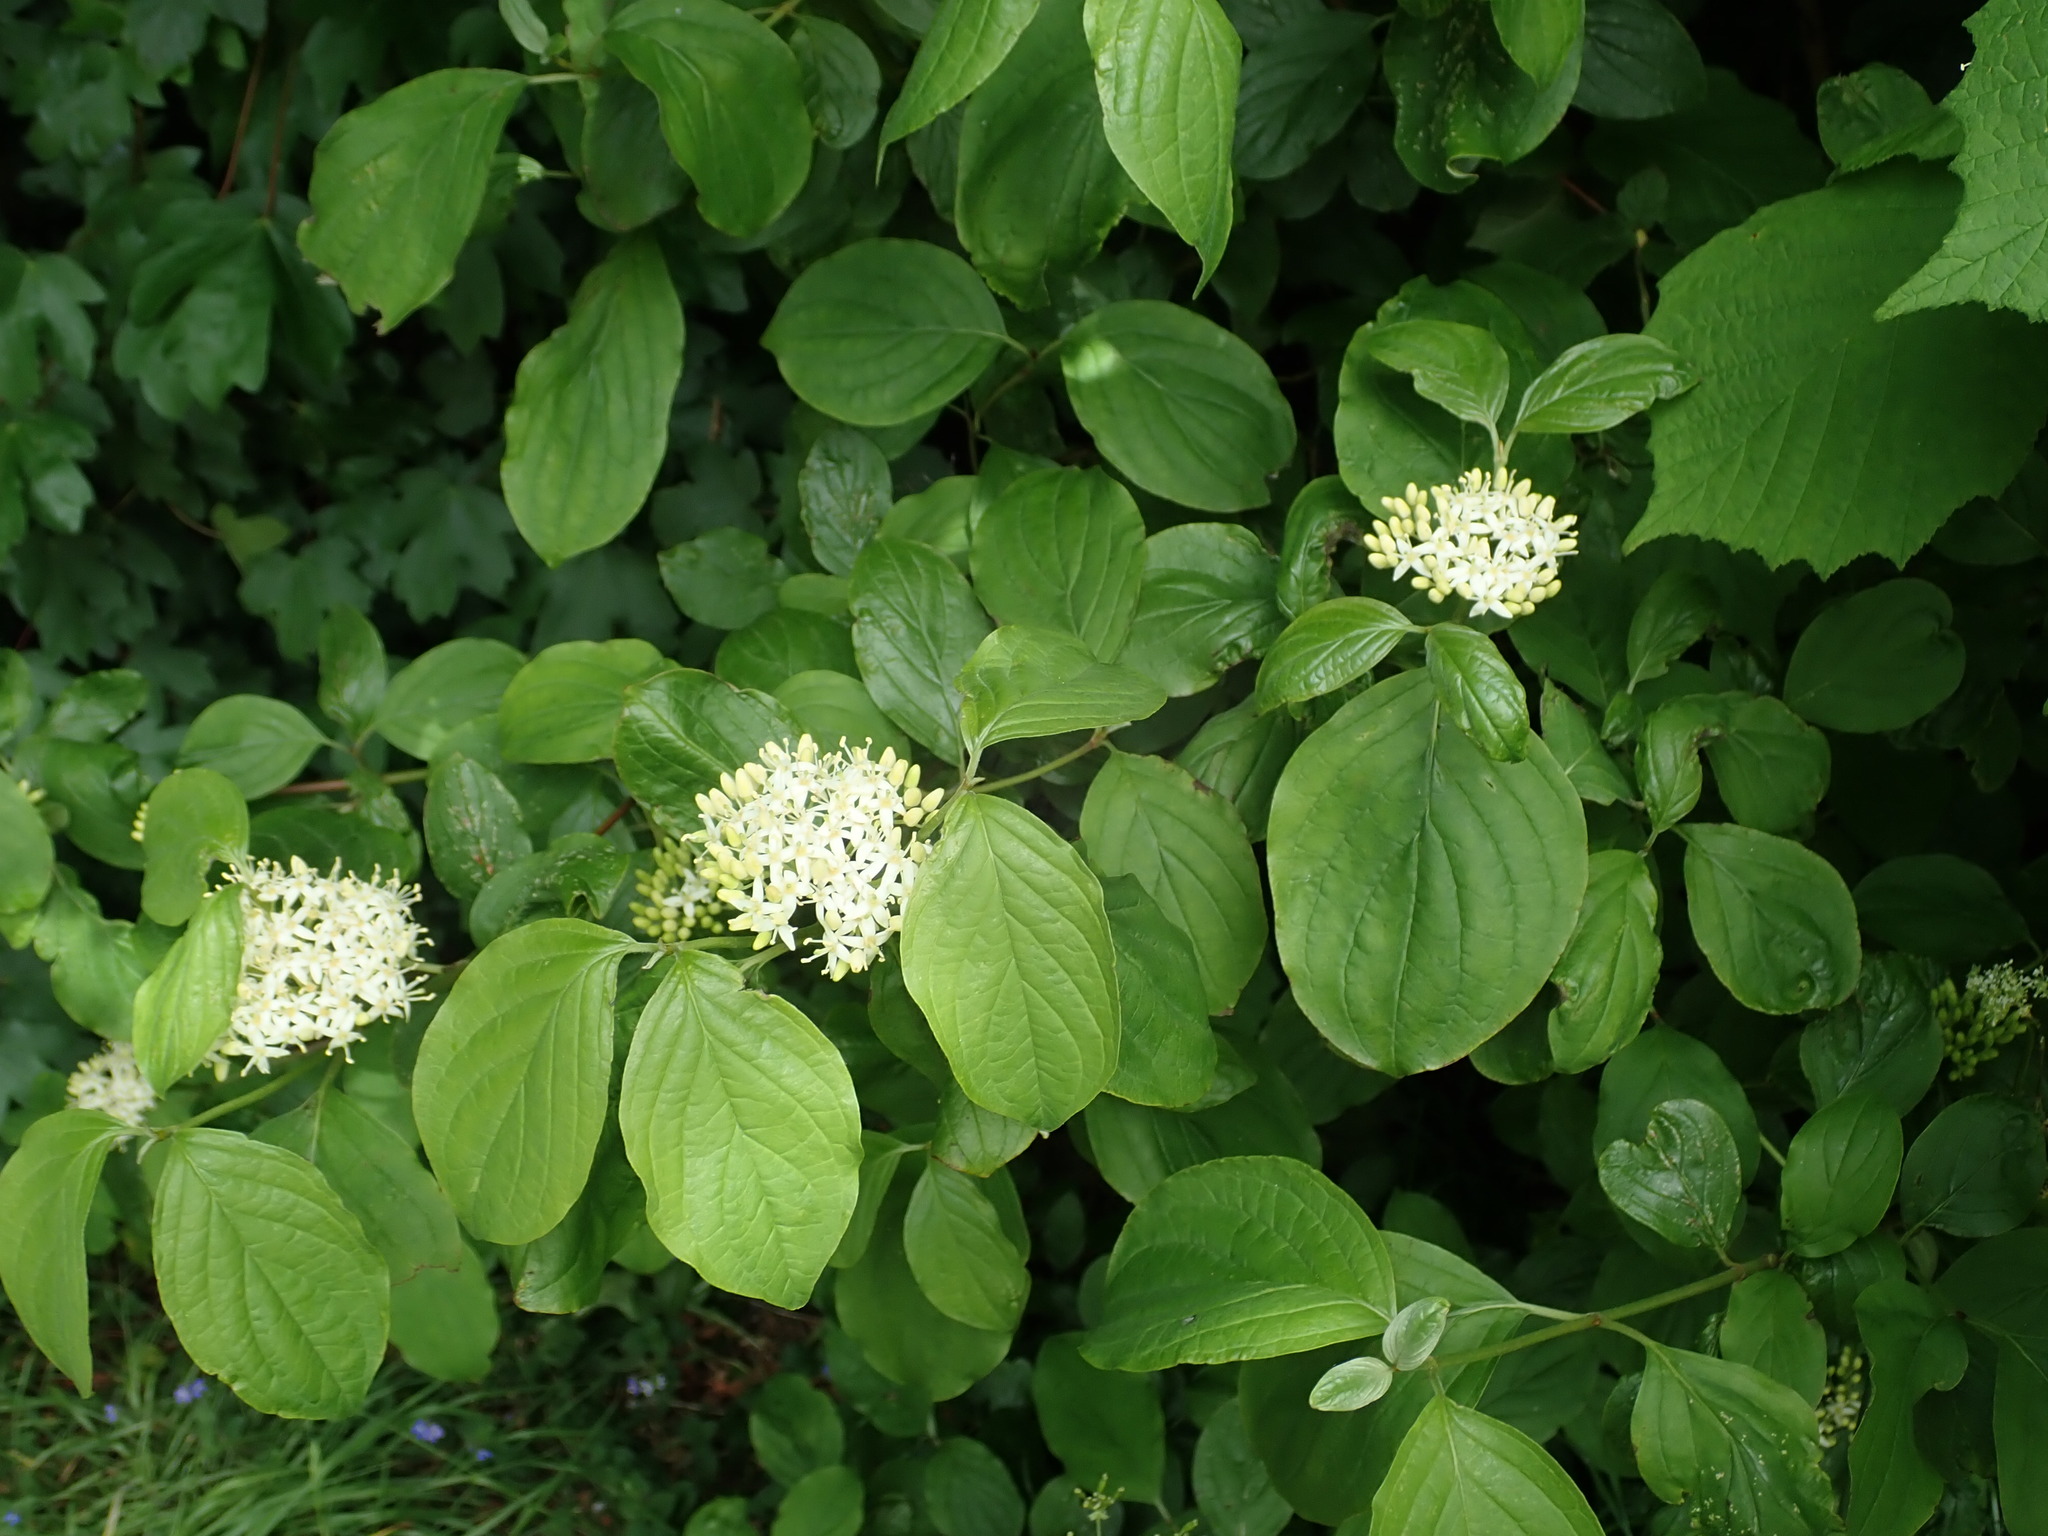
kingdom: Plantae
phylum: Tracheophyta
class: Magnoliopsida
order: Cornales
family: Cornaceae
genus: Cornus
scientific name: Cornus sanguinea
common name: Dogwood
